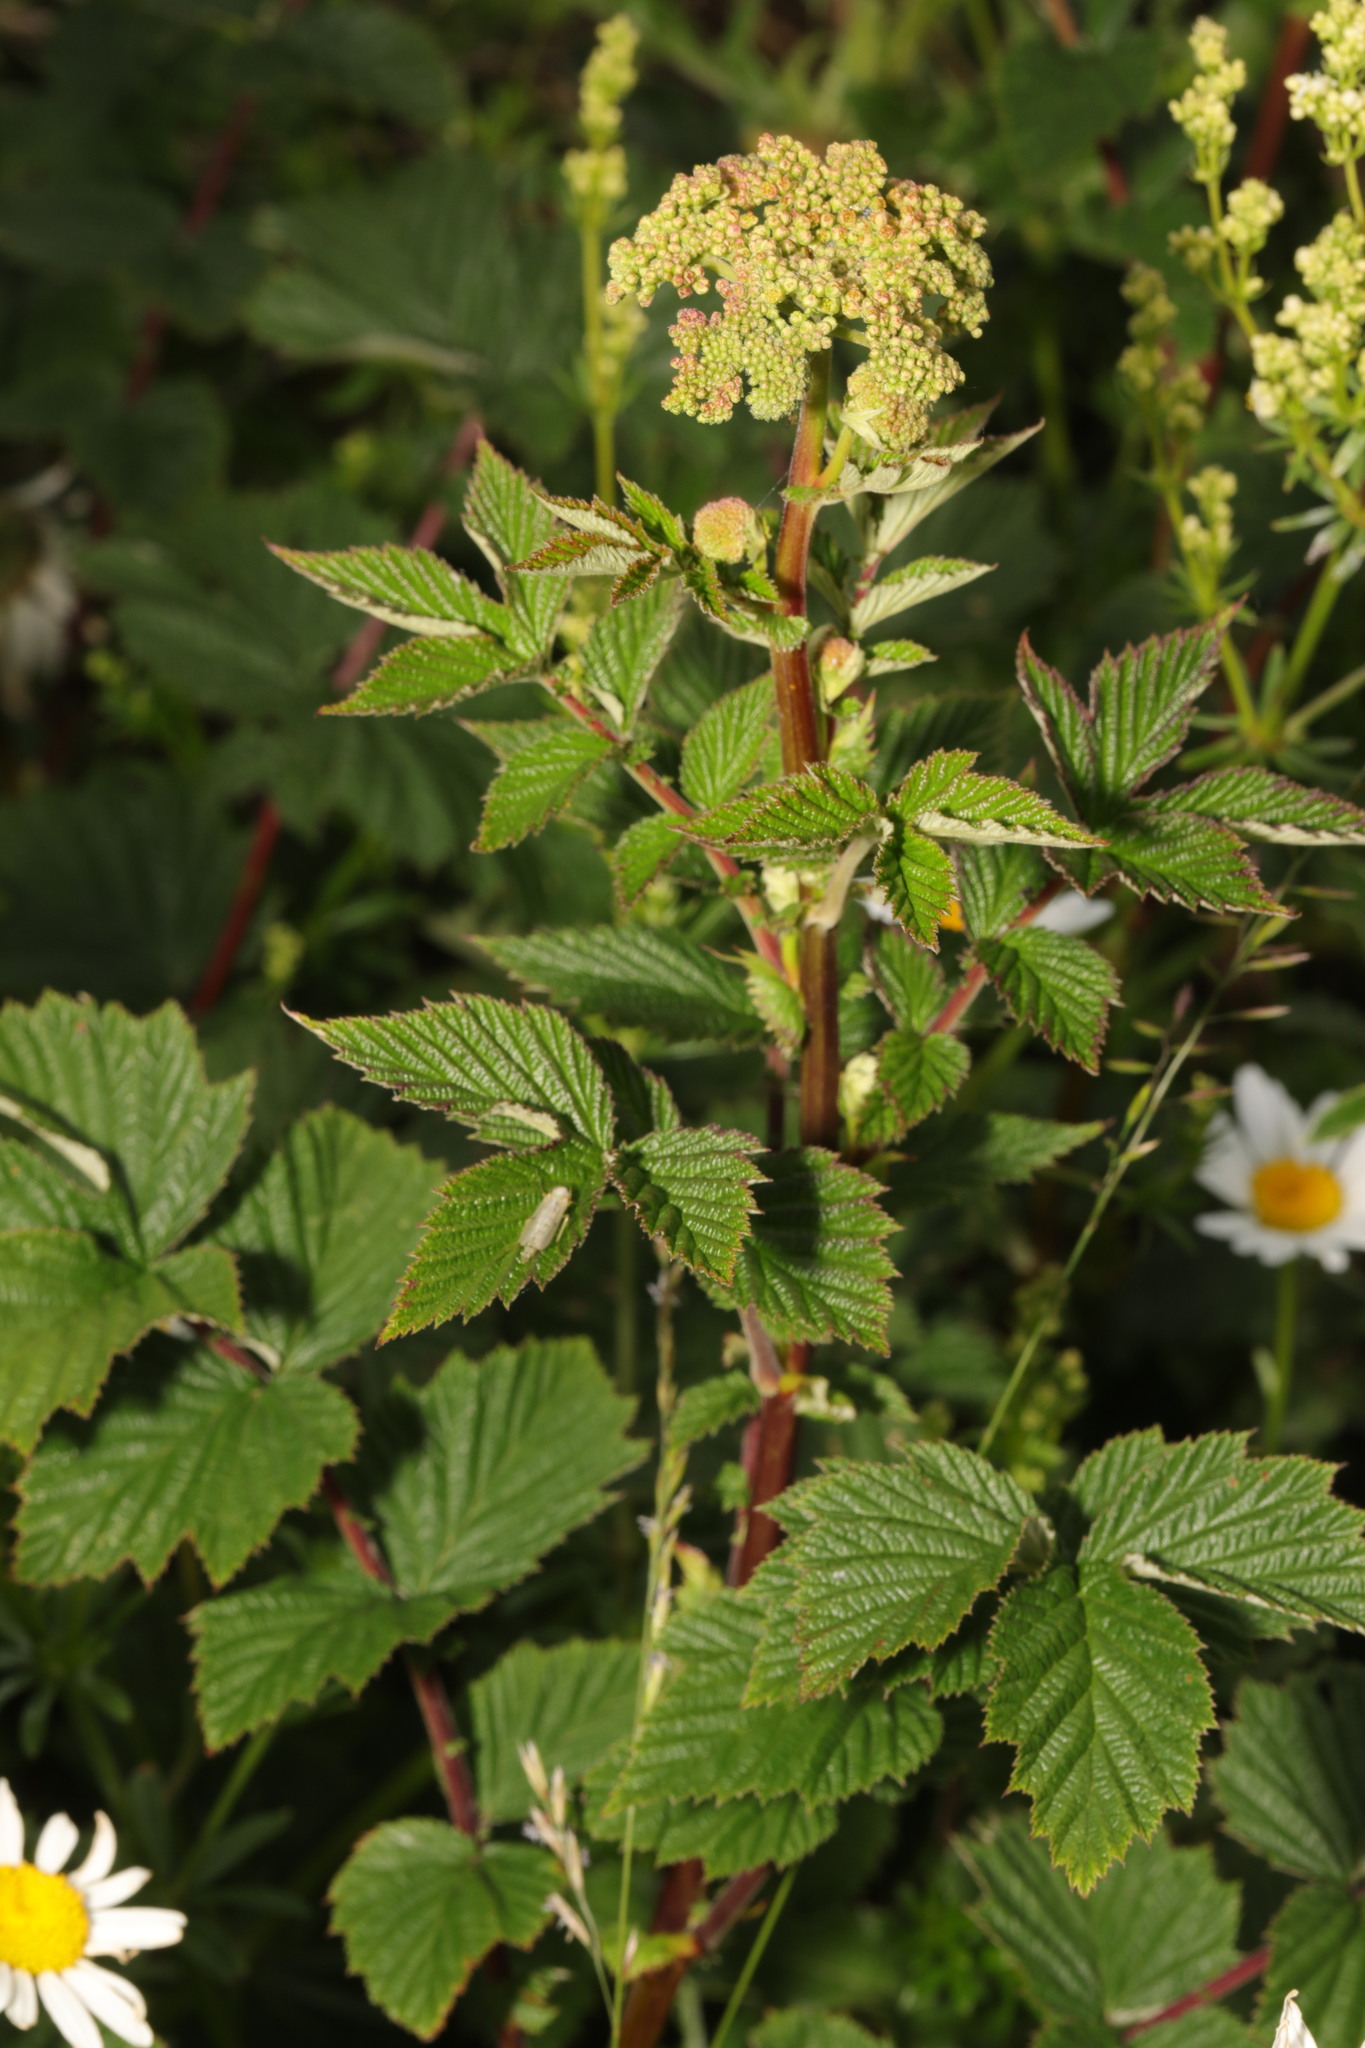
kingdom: Plantae
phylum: Tracheophyta
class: Magnoliopsida
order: Rosales
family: Rosaceae
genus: Filipendula
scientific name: Filipendula ulmaria
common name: Meadowsweet
